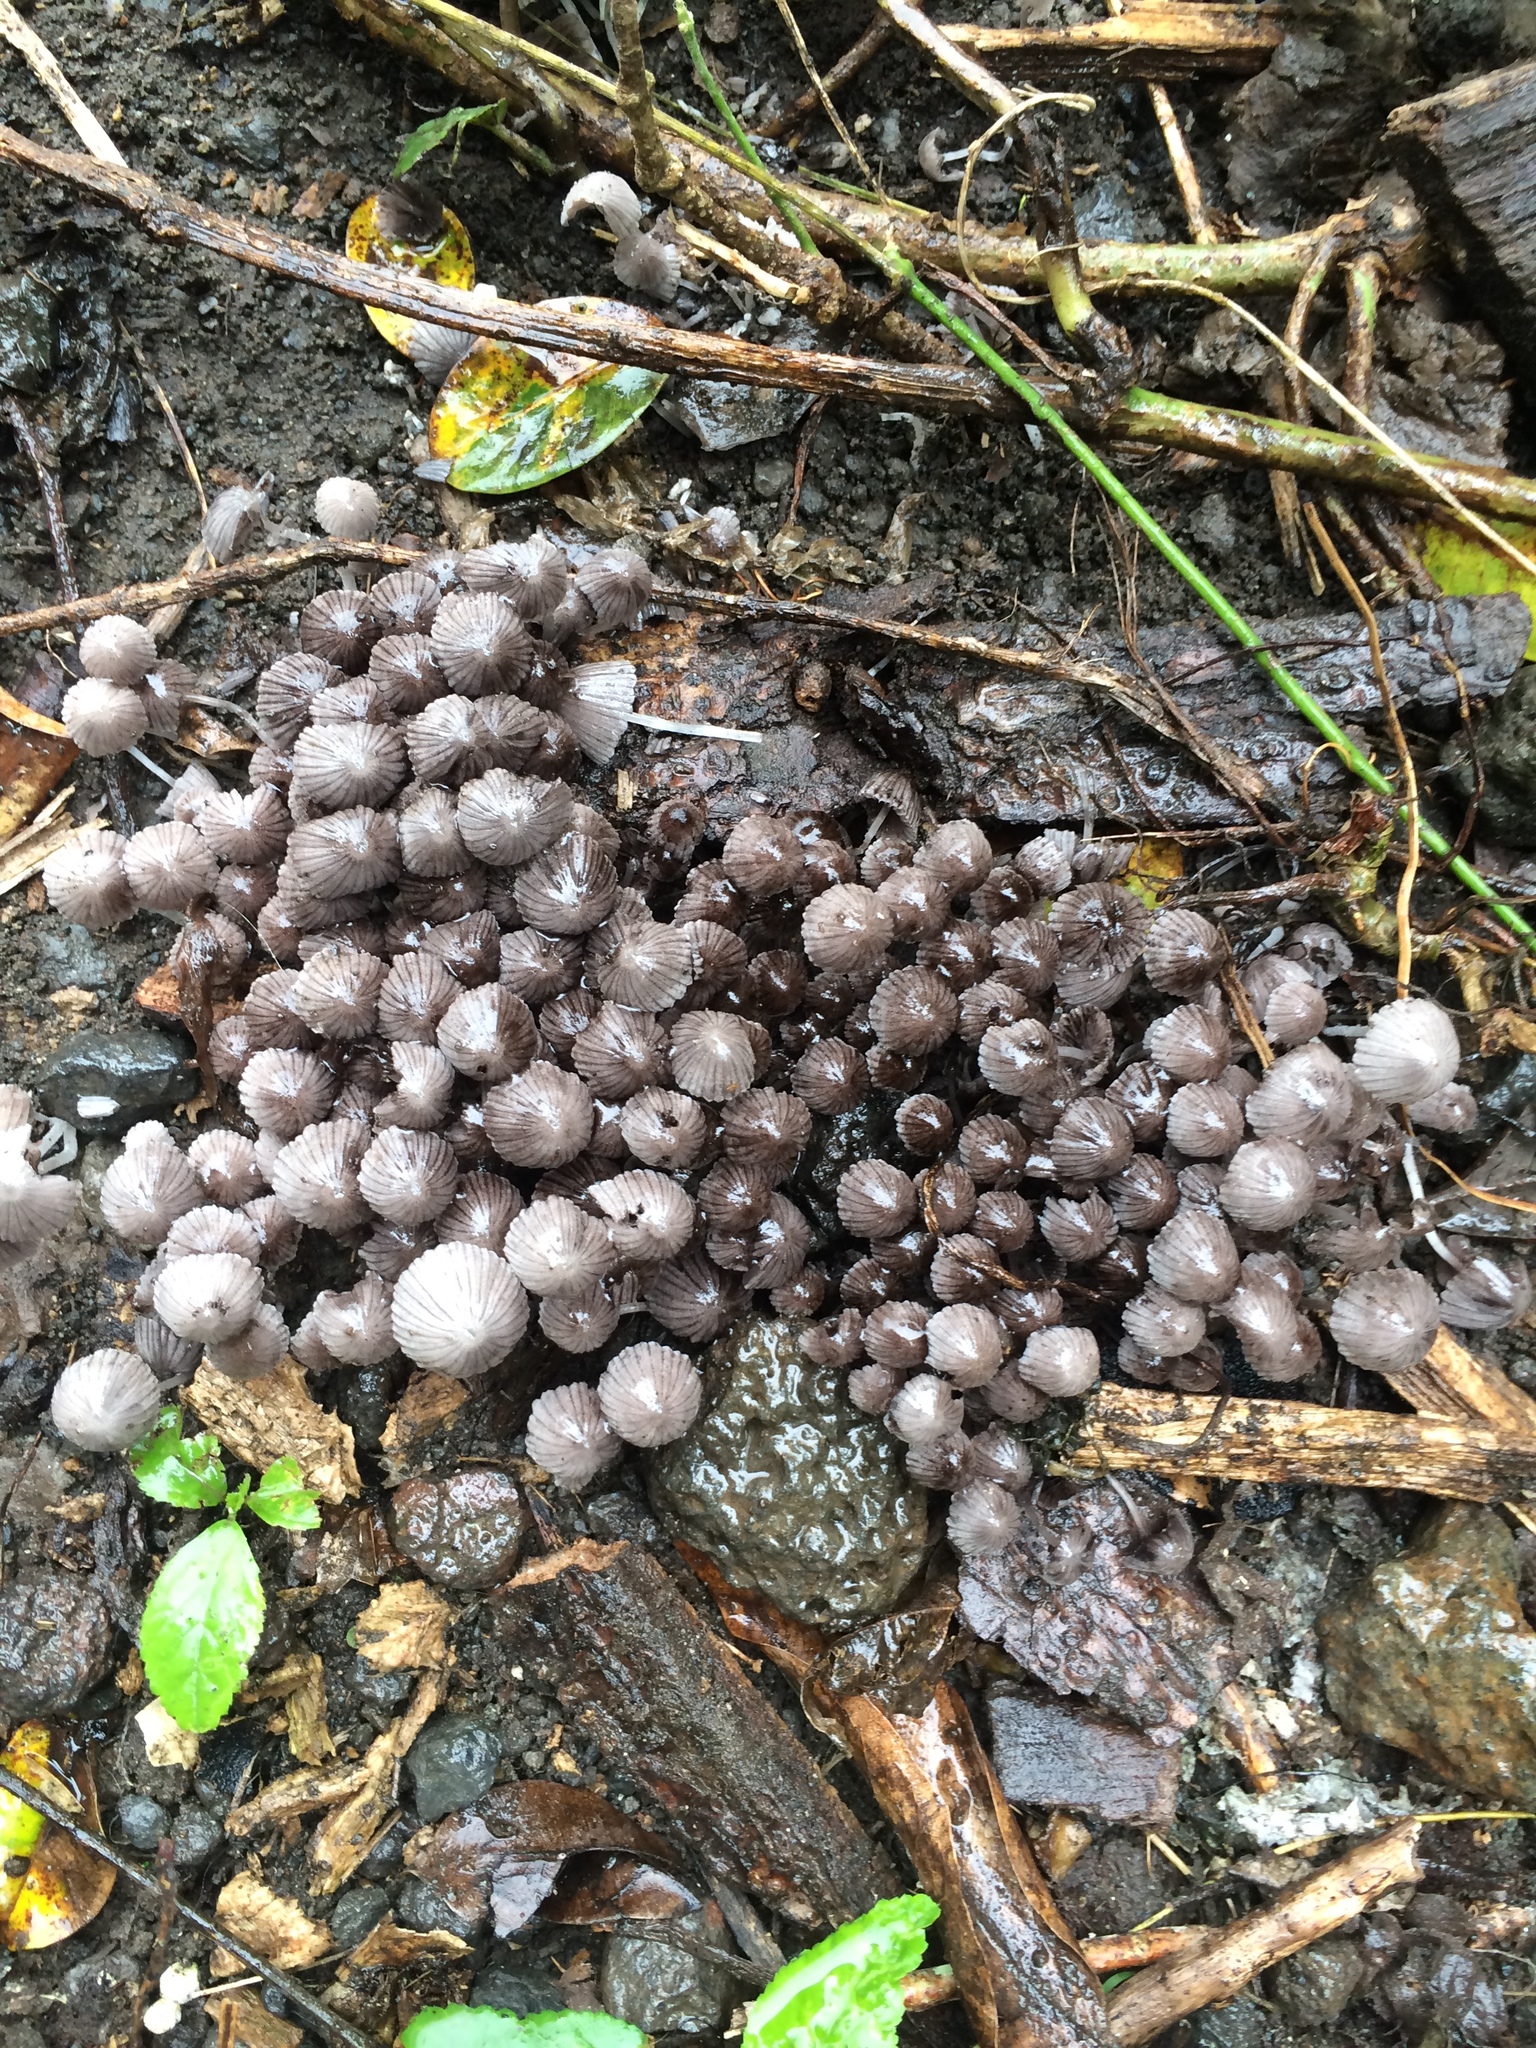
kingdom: Fungi
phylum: Basidiomycota
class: Agaricomycetes
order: Agaricales
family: Psathyrellaceae
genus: Coprinellus
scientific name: Coprinellus disseminatus
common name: Fairies' bonnets
